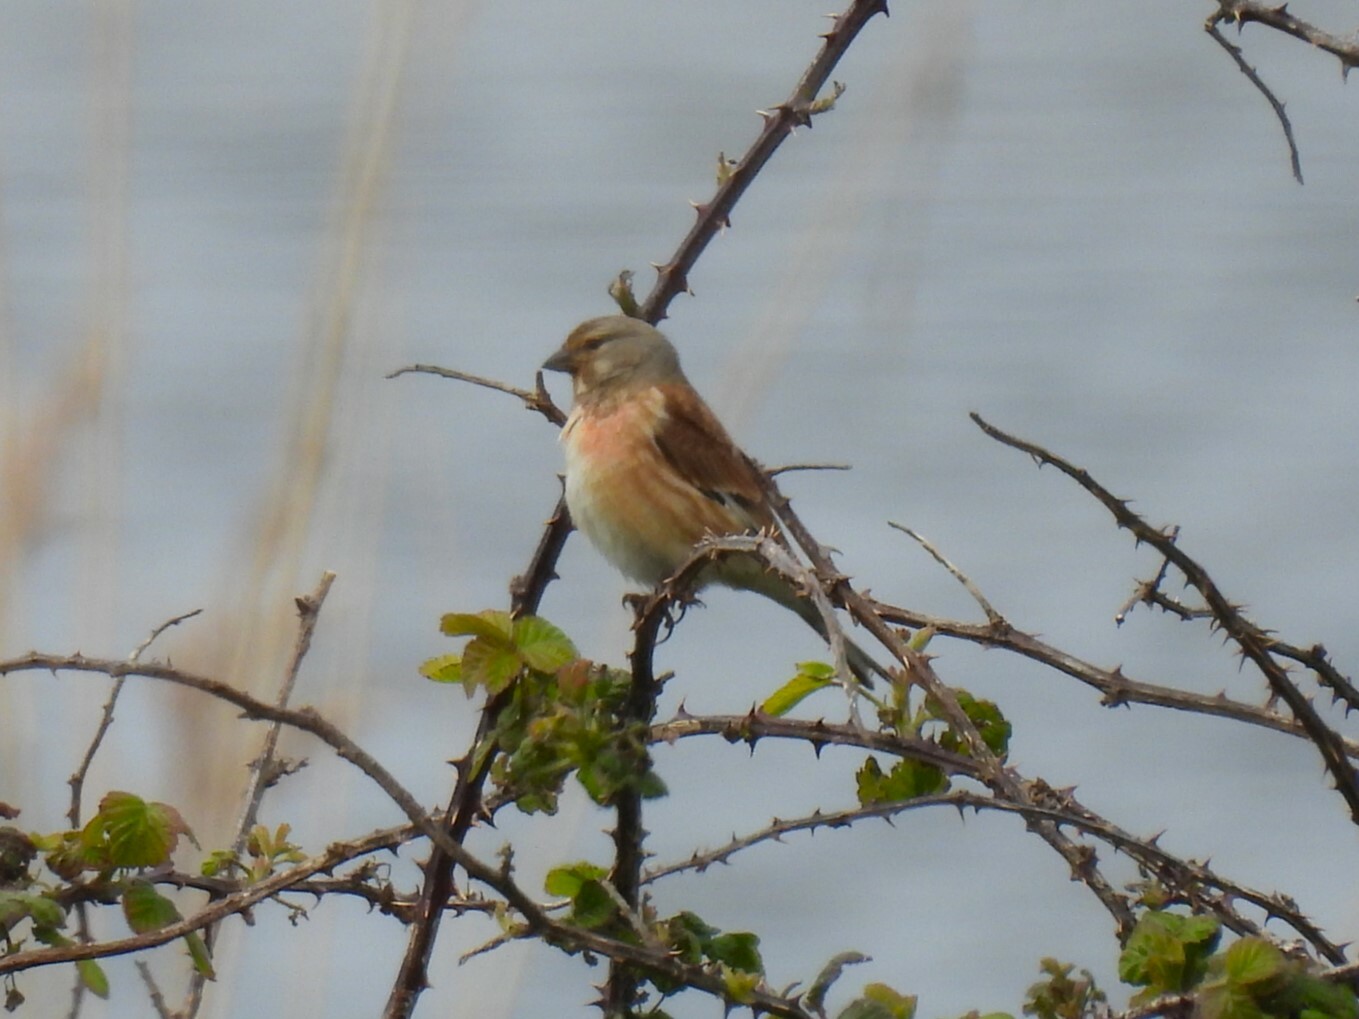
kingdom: Animalia
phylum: Chordata
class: Aves
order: Passeriformes
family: Fringillidae
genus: Linaria
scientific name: Linaria cannabina
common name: Common linnet
